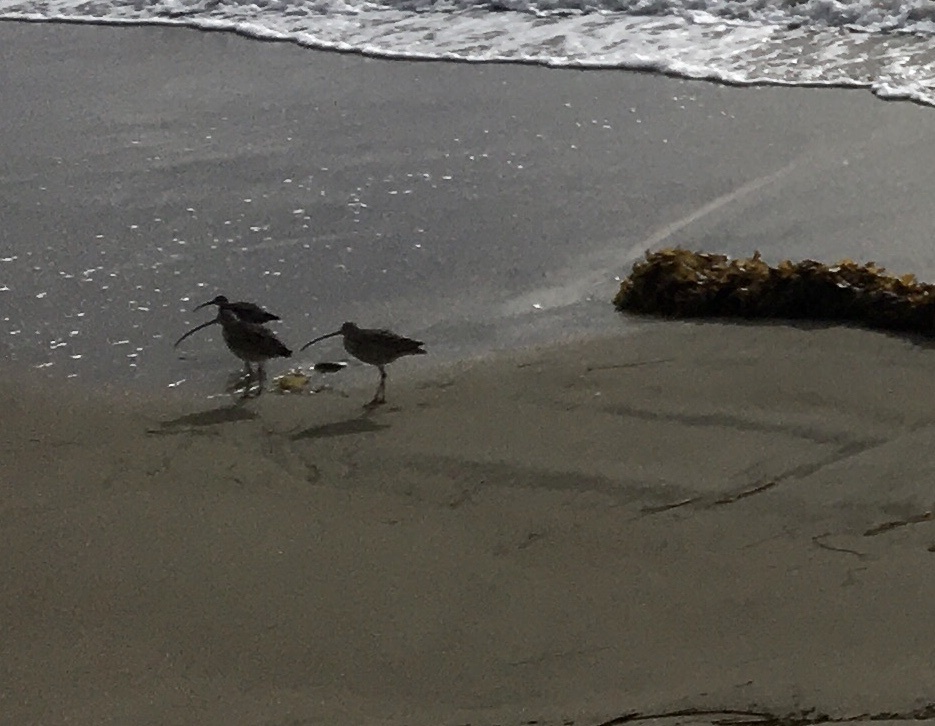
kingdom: Animalia
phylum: Chordata
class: Aves
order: Charadriiformes
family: Scolopacidae
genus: Numenius
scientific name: Numenius americanus
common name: Long-billed curlew
